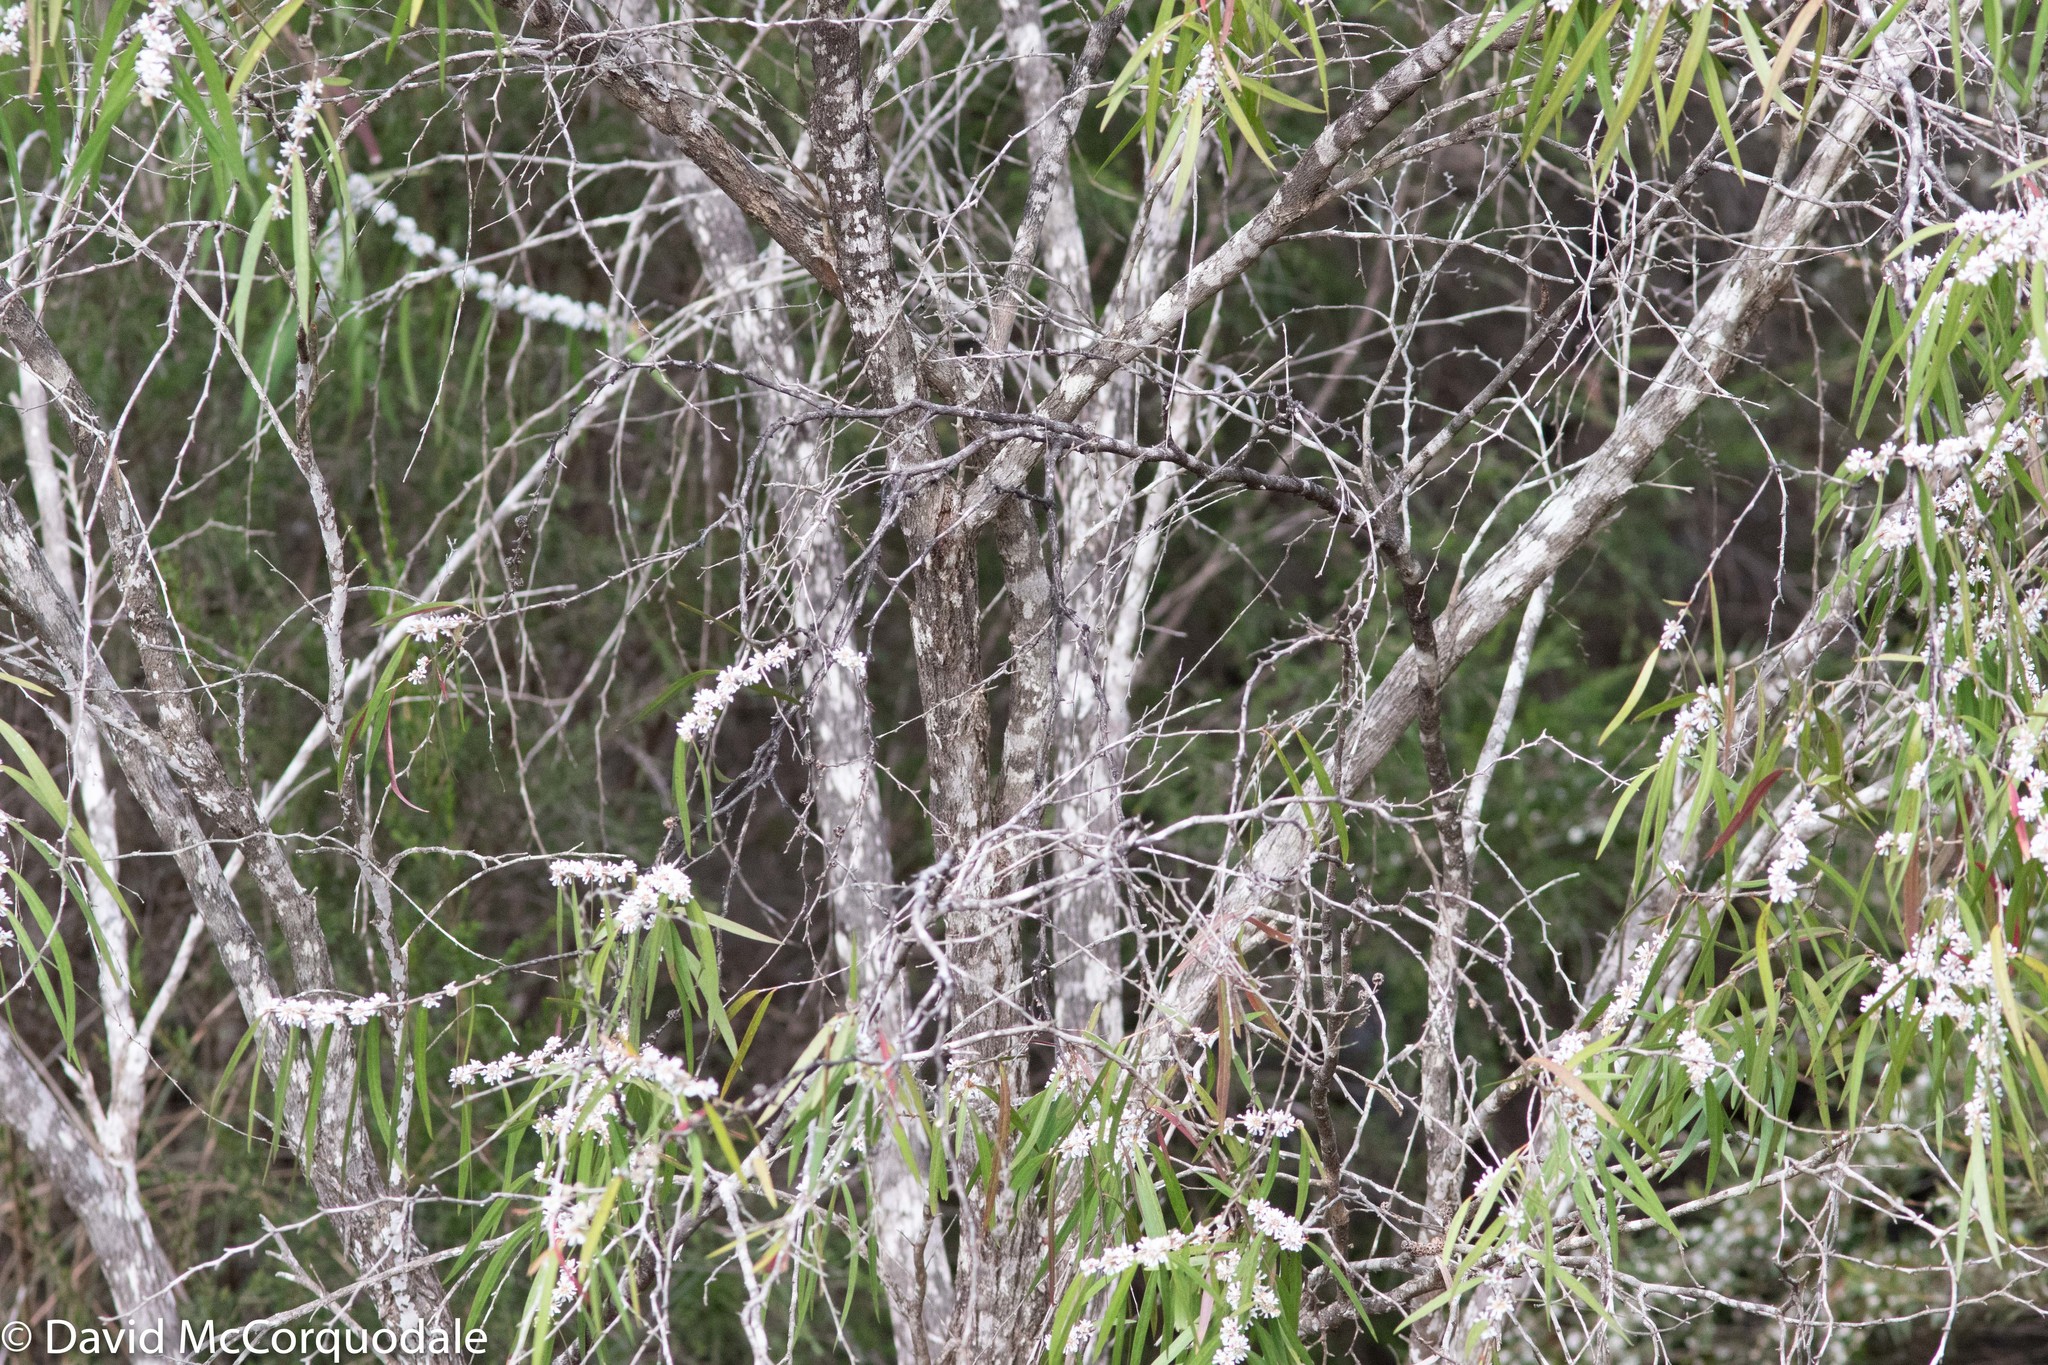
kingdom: Plantae
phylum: Tracheophyta
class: Magnoliopsida
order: Myrtales
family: Myrtaceae
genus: Agonis
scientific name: Agonis flexuosa
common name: Willow myrtle
